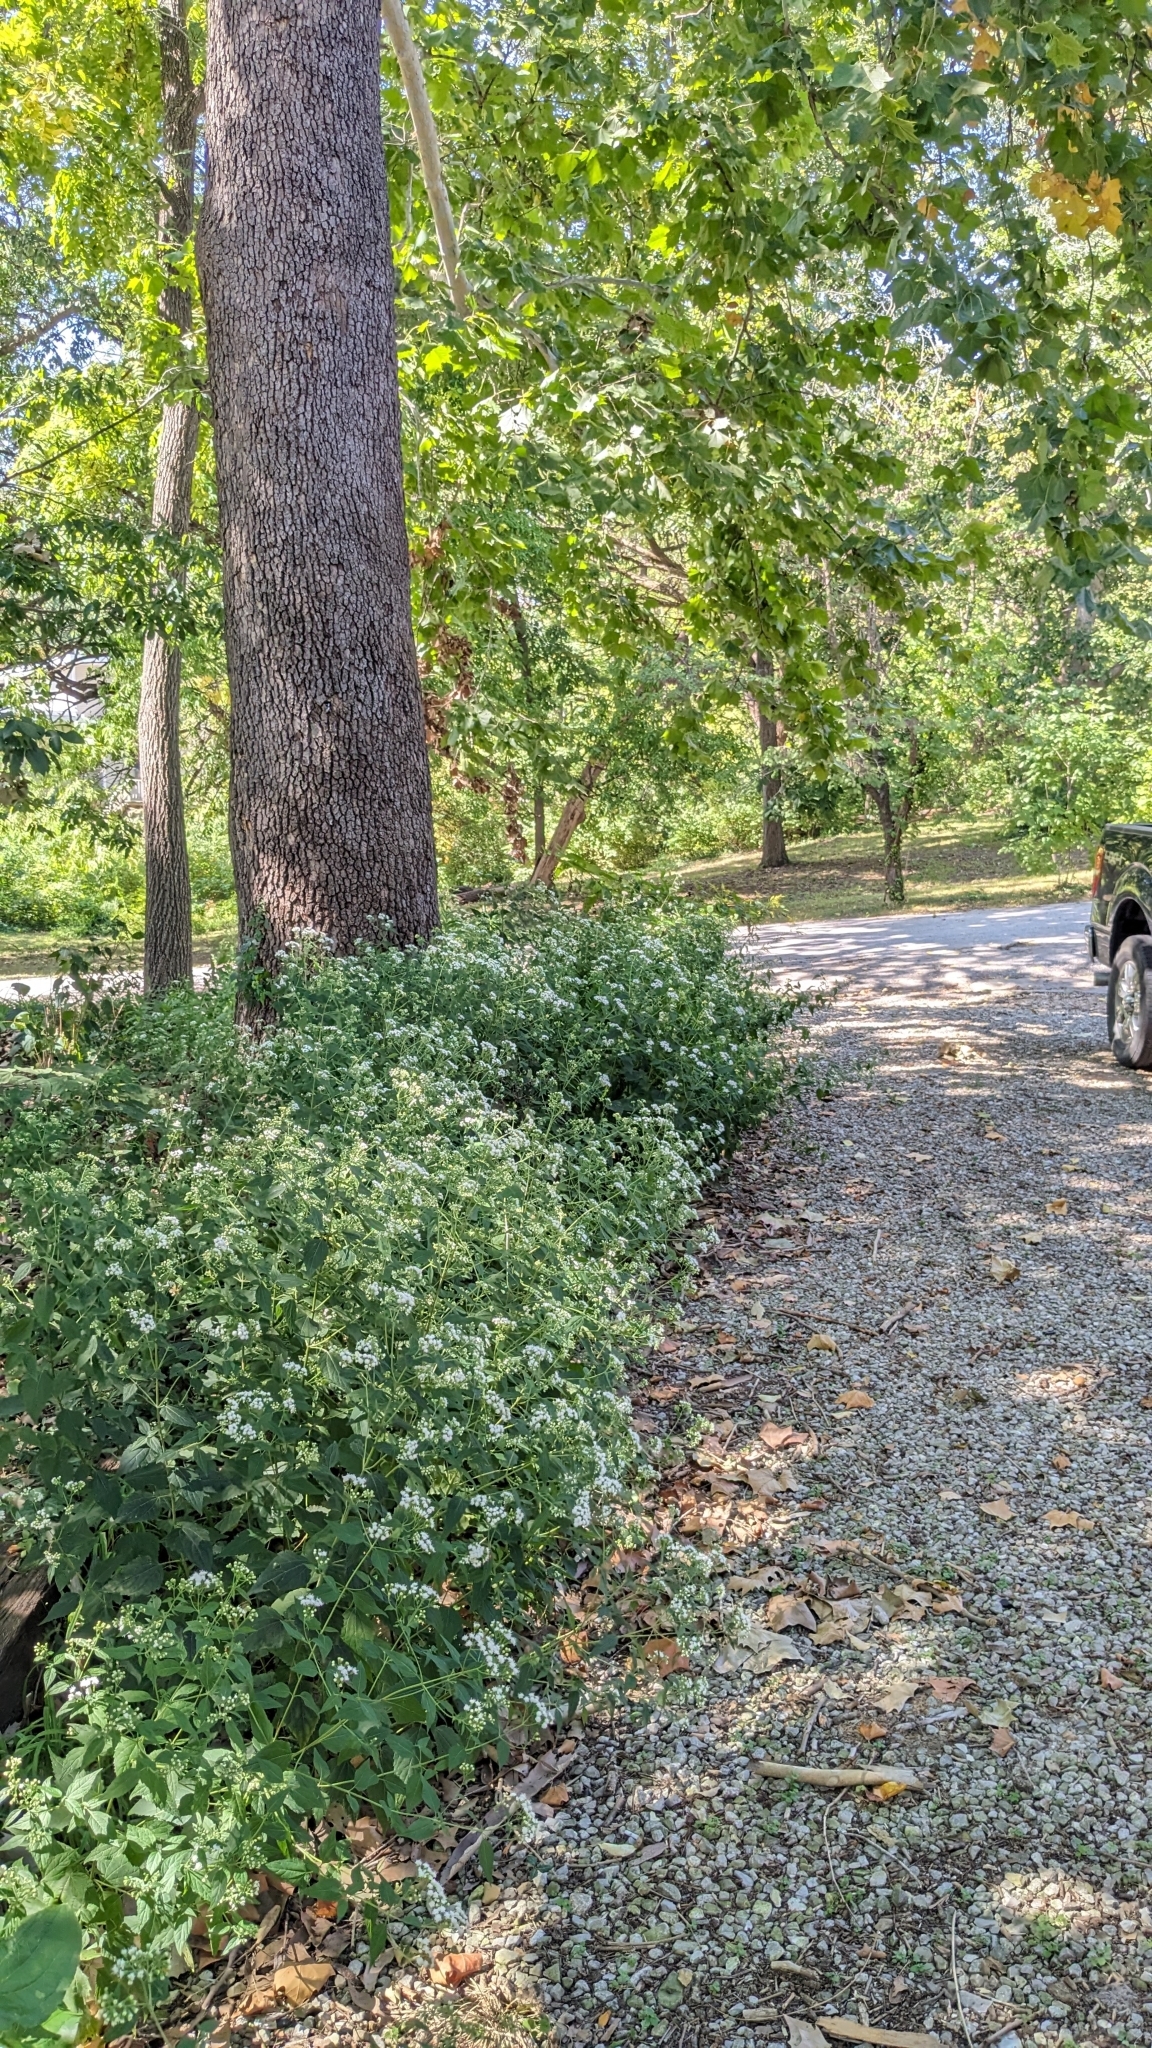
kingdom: Plantae
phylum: Tracheophyta
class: Magnoliopsida
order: Asterales
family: Asteraceae
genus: Ageratina
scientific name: Ageratina altissima
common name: White snakeroot
